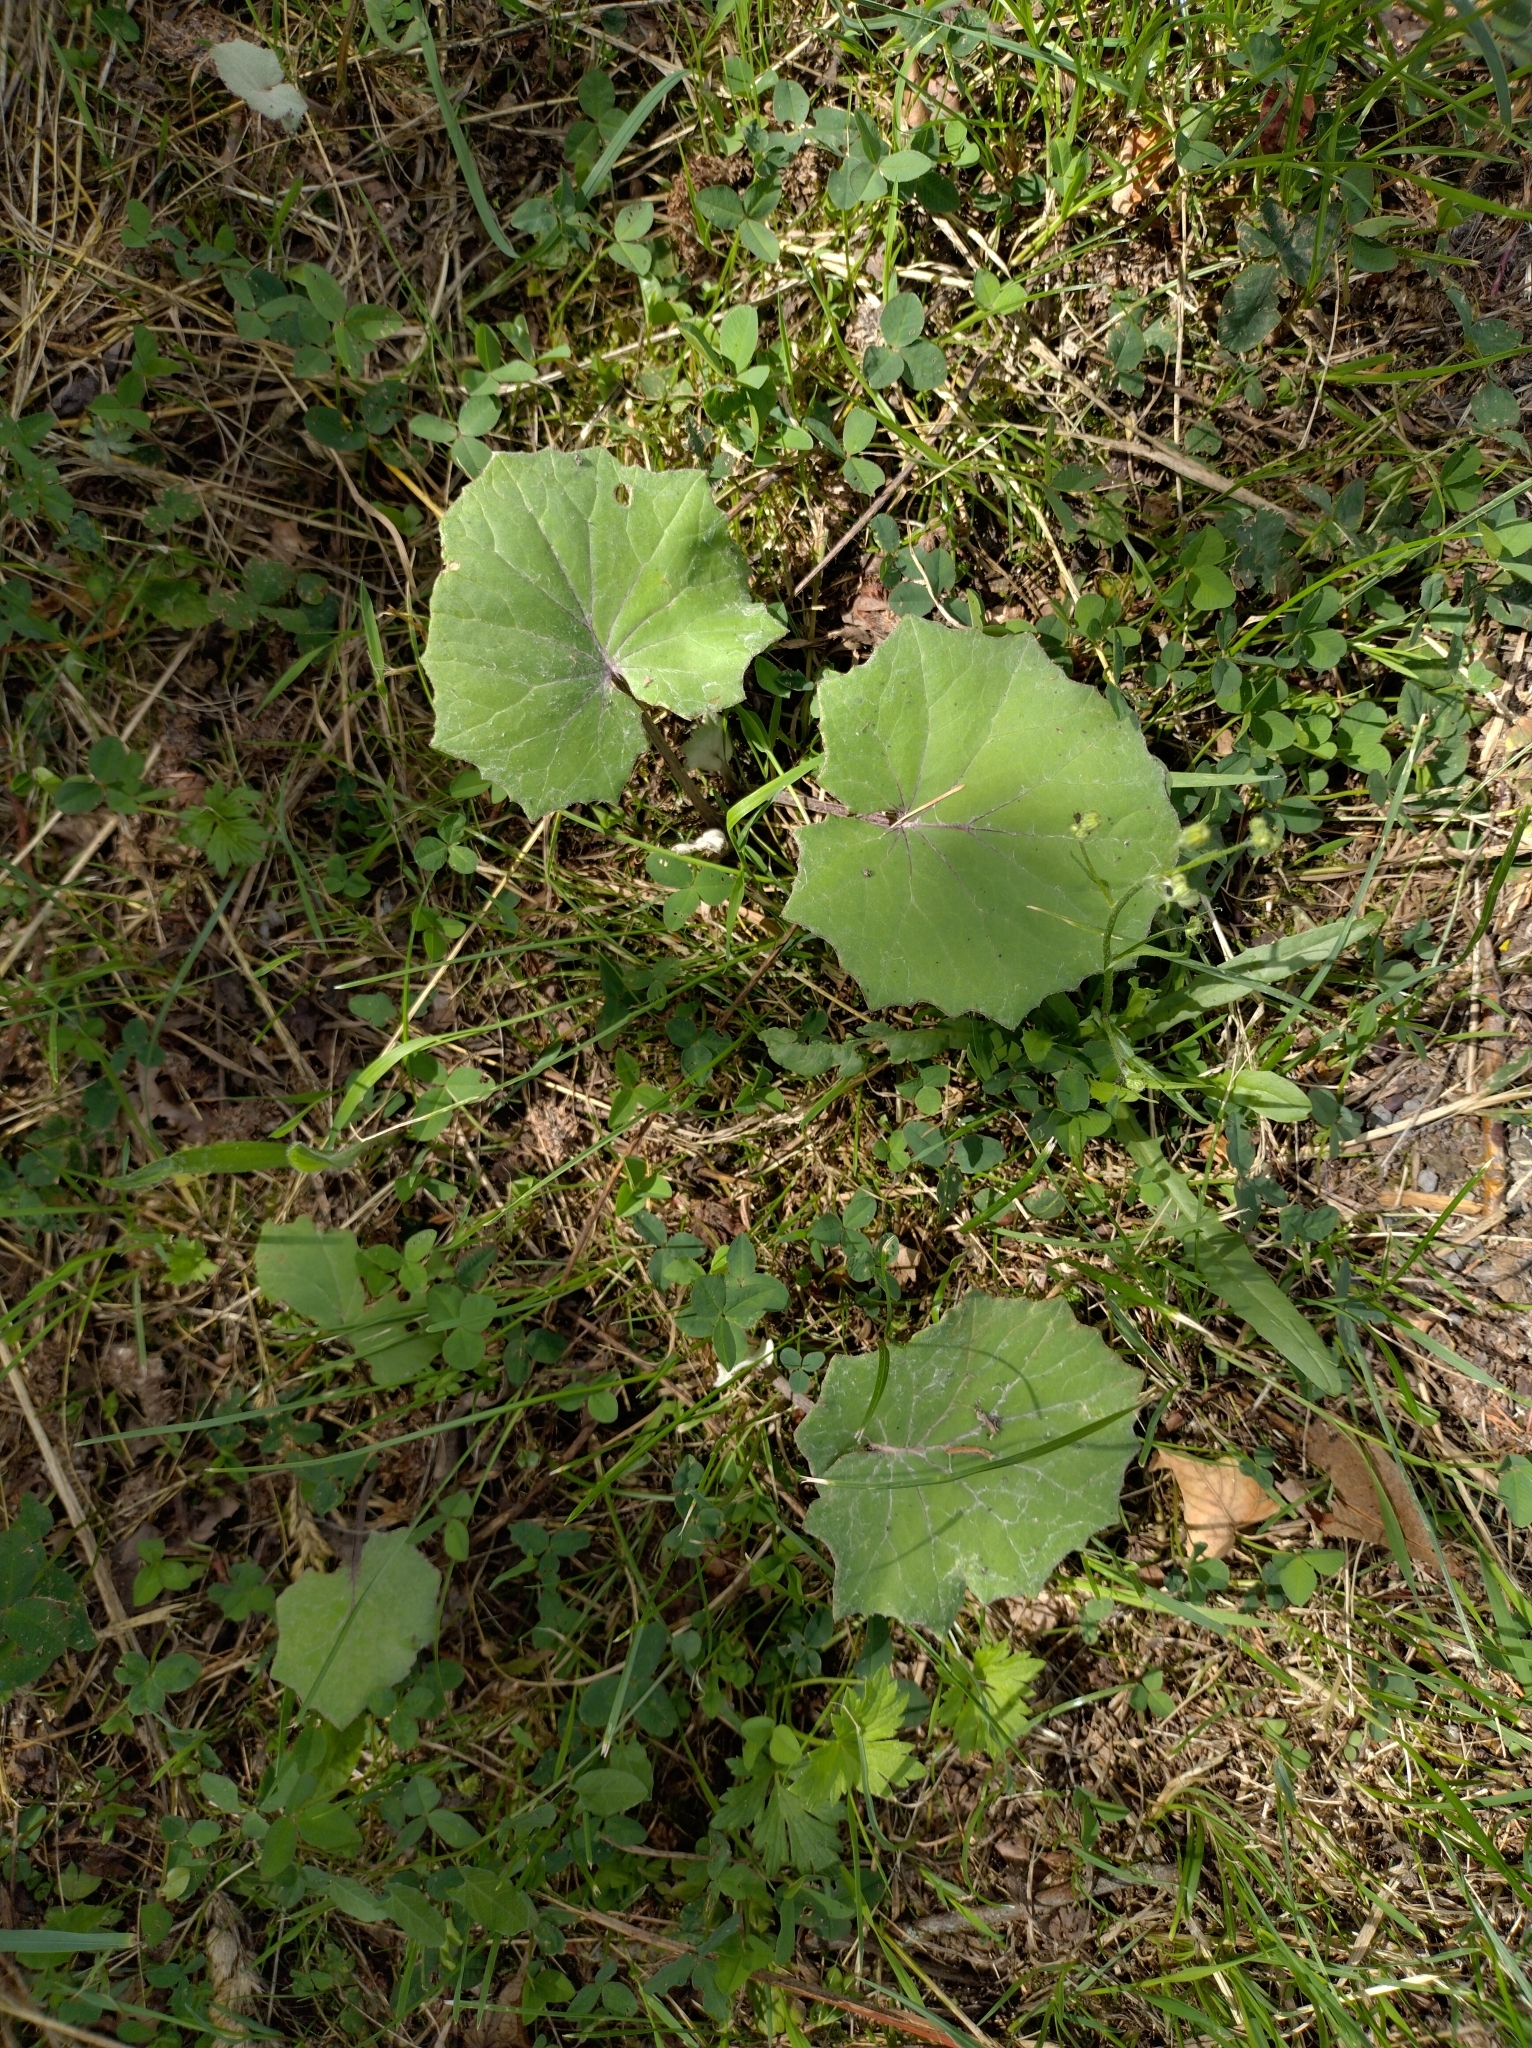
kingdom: Plantae
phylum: Tracheophyta
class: Magnoliopsida
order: Asterales
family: Asteraceae
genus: Tussilago
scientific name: Tussilago farfara
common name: Coltsfoot
